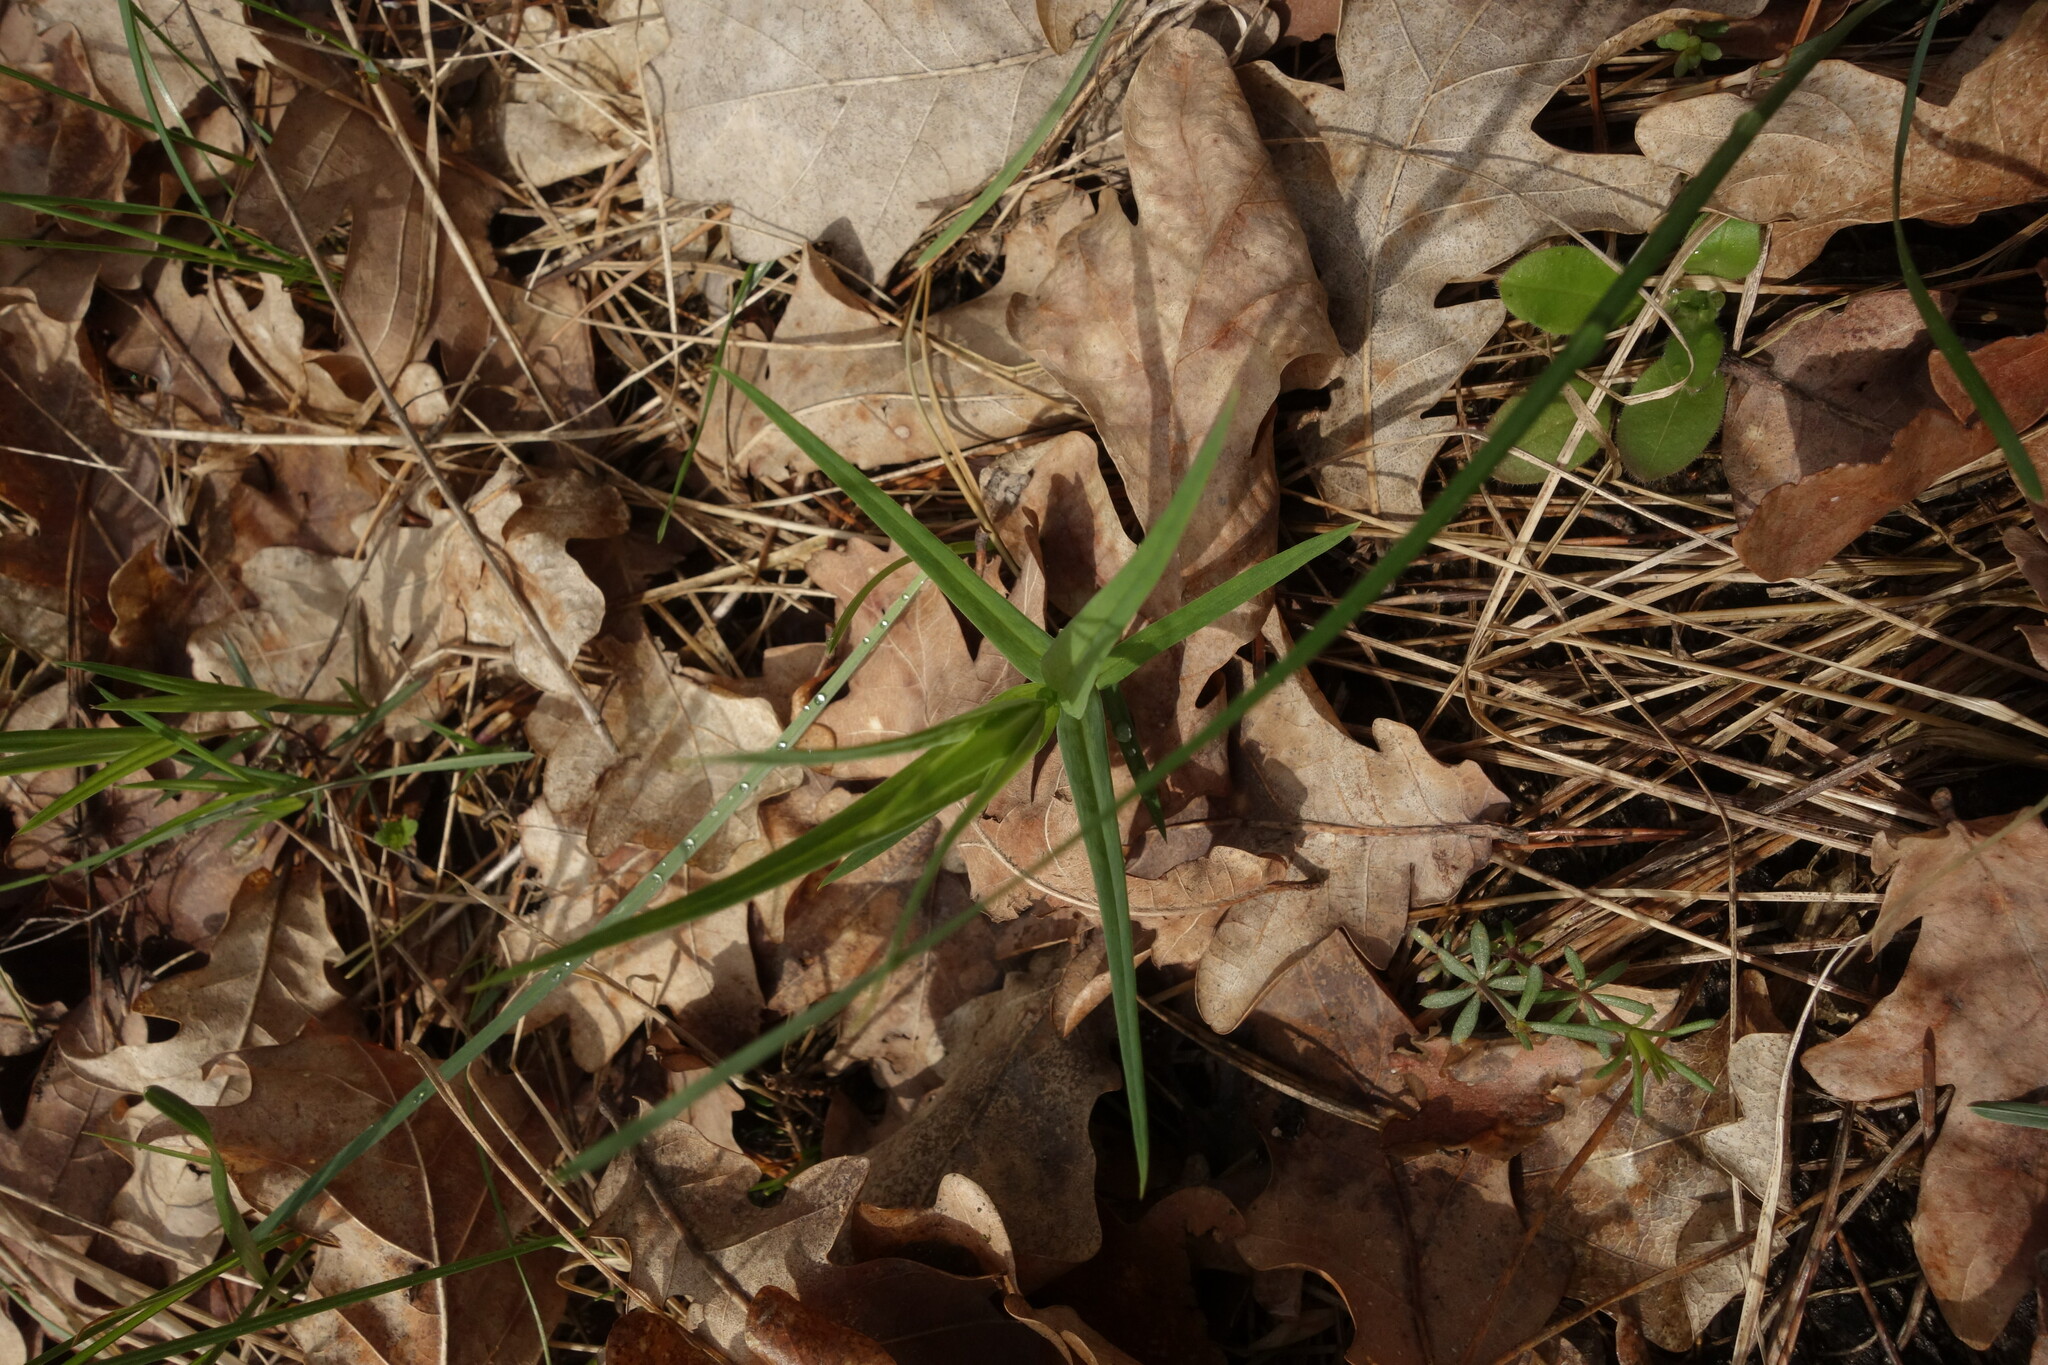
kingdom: Plantae
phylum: Tracheophyta
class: Magnoliopsida
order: Caryophyllales
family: Caryophyllaceae
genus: Rabelera
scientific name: Rabelera holostea
